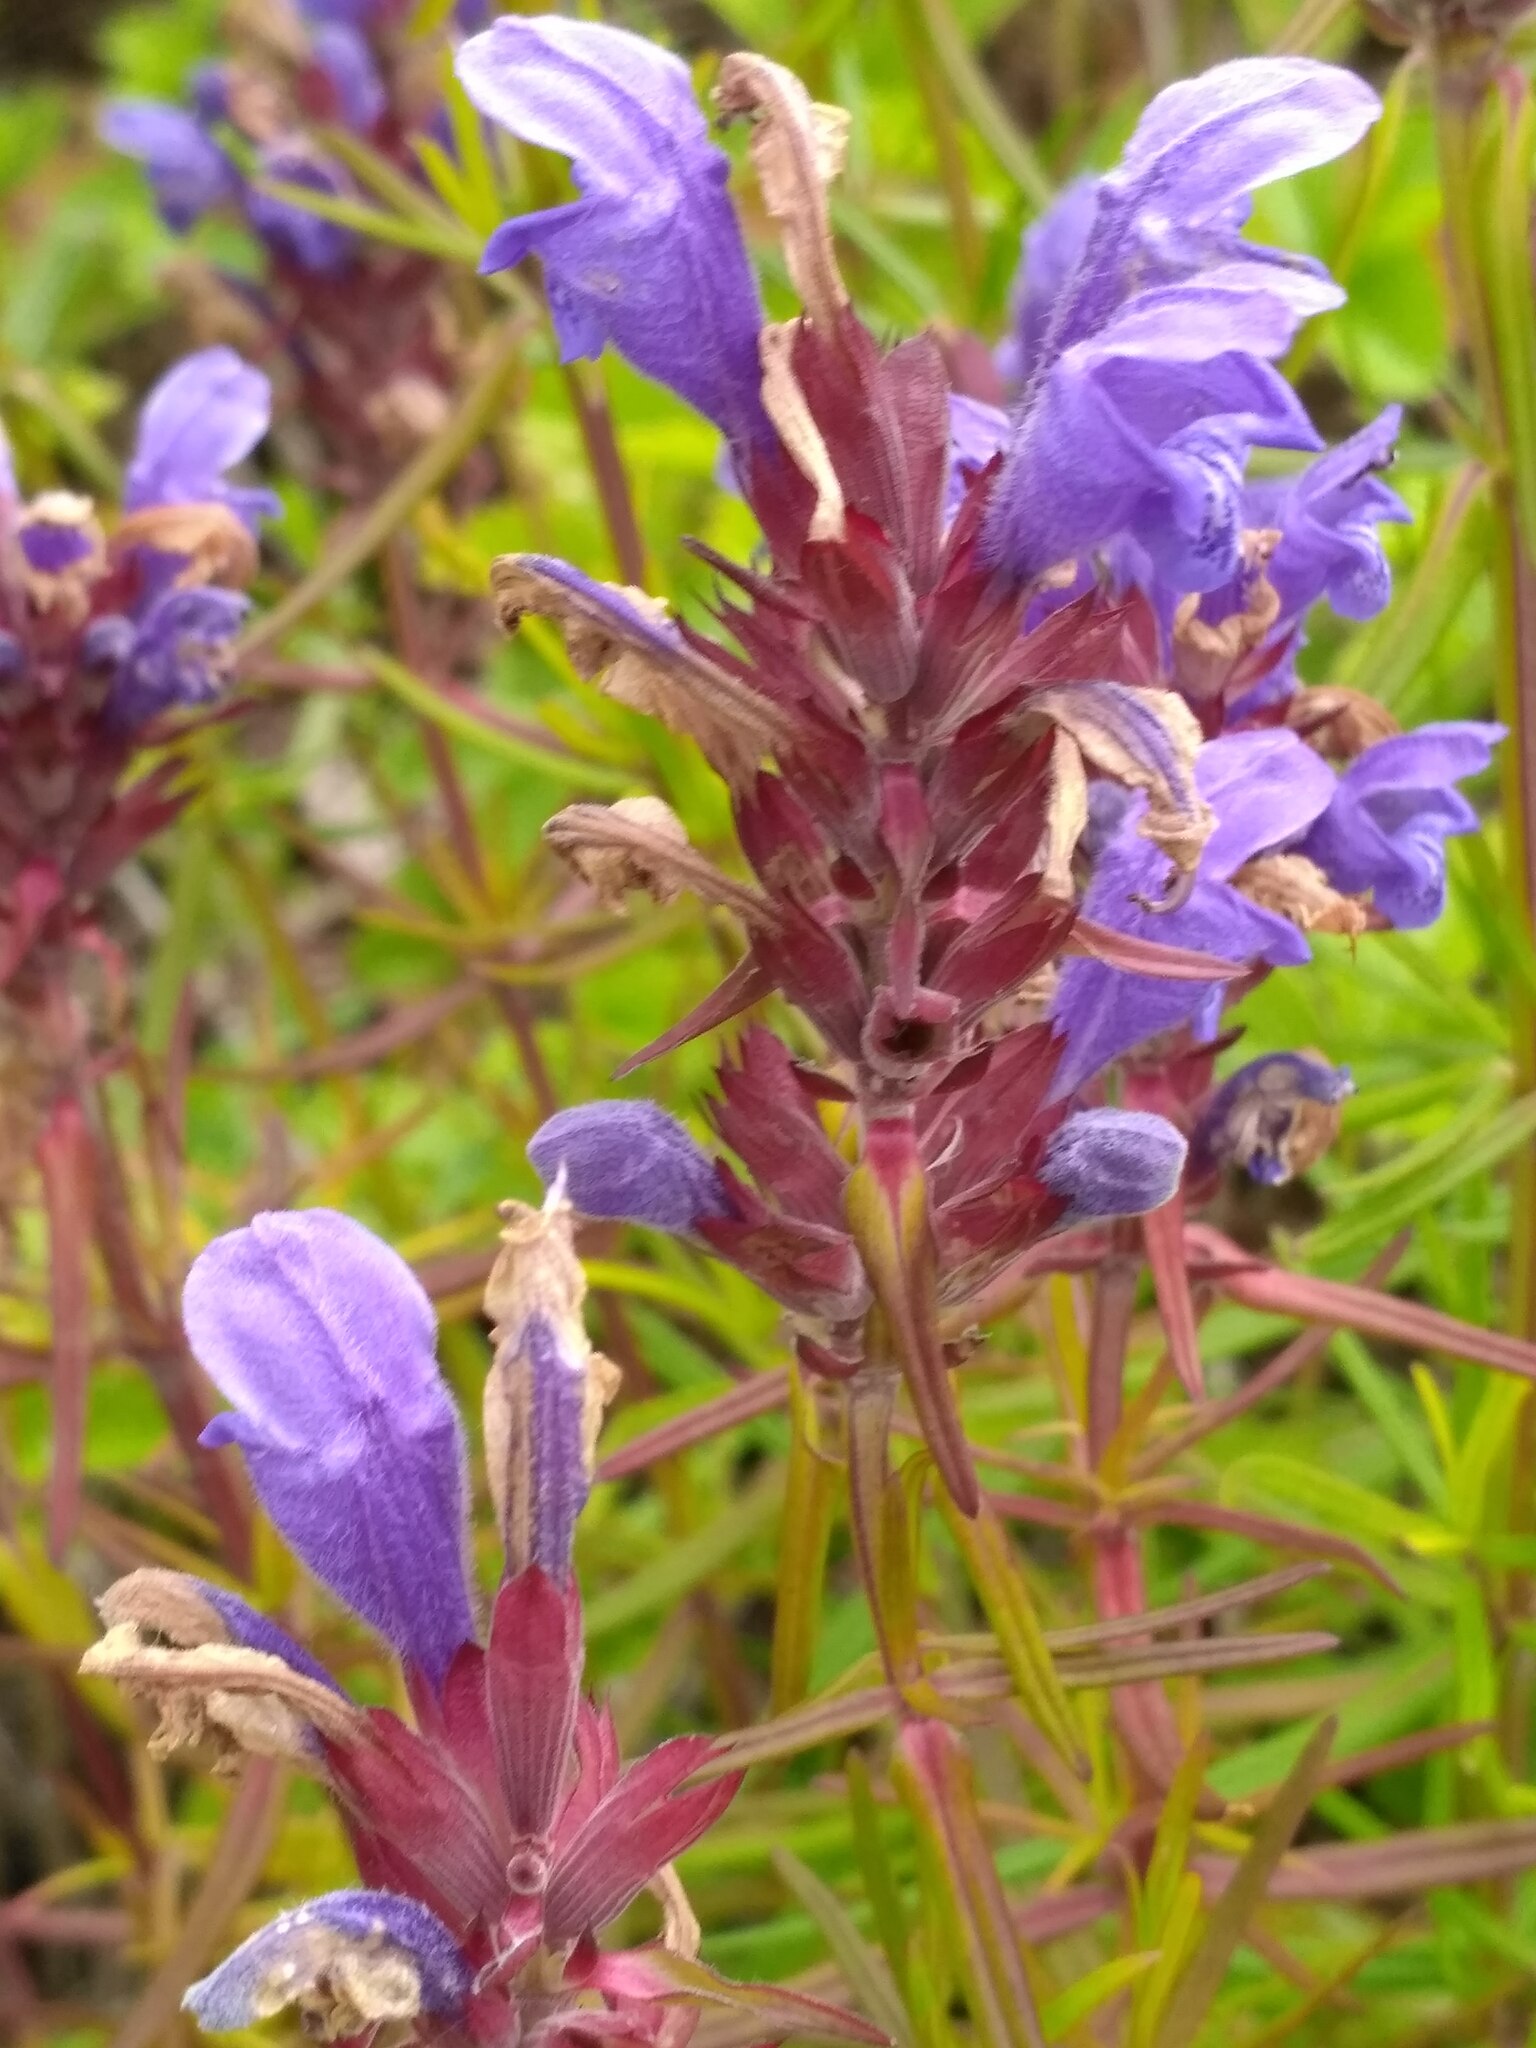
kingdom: Plantae
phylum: Tracheophyta
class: Magnoliopsida
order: Lamiales
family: Lamiaceae
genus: Dracocephalum
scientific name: Dracocephalum ruyschiana
